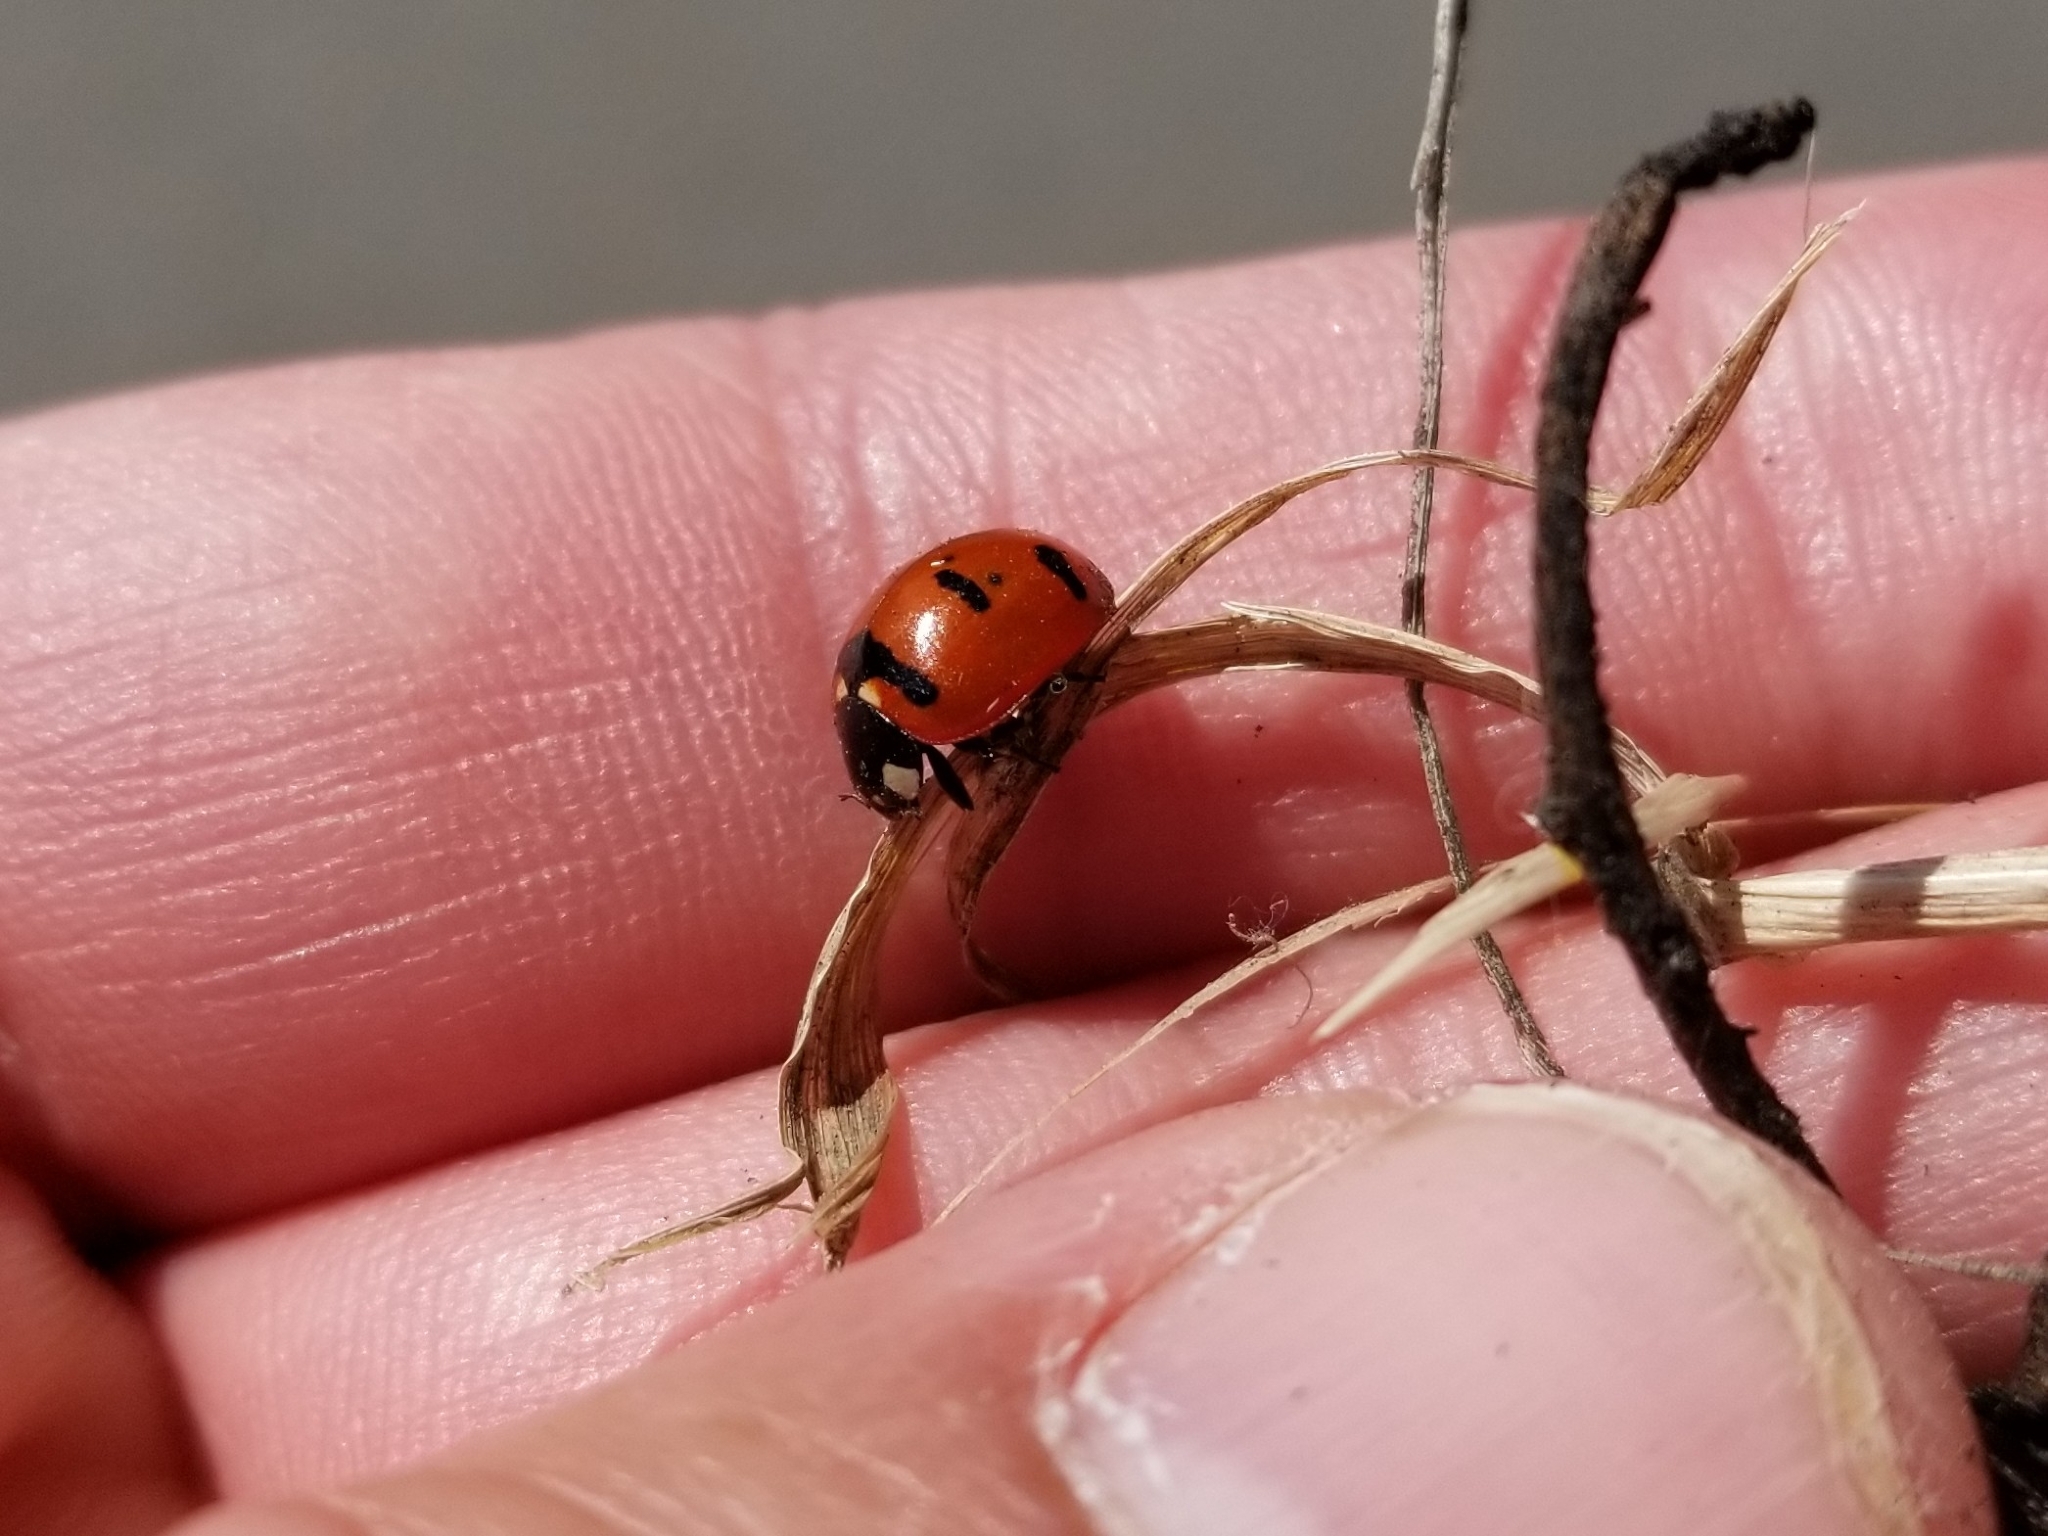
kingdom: Animalia
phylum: Arthropoda
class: Insecta
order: Coleoptera
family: Coccinellidae
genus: Coccinella
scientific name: Coccinella transversoguttata
